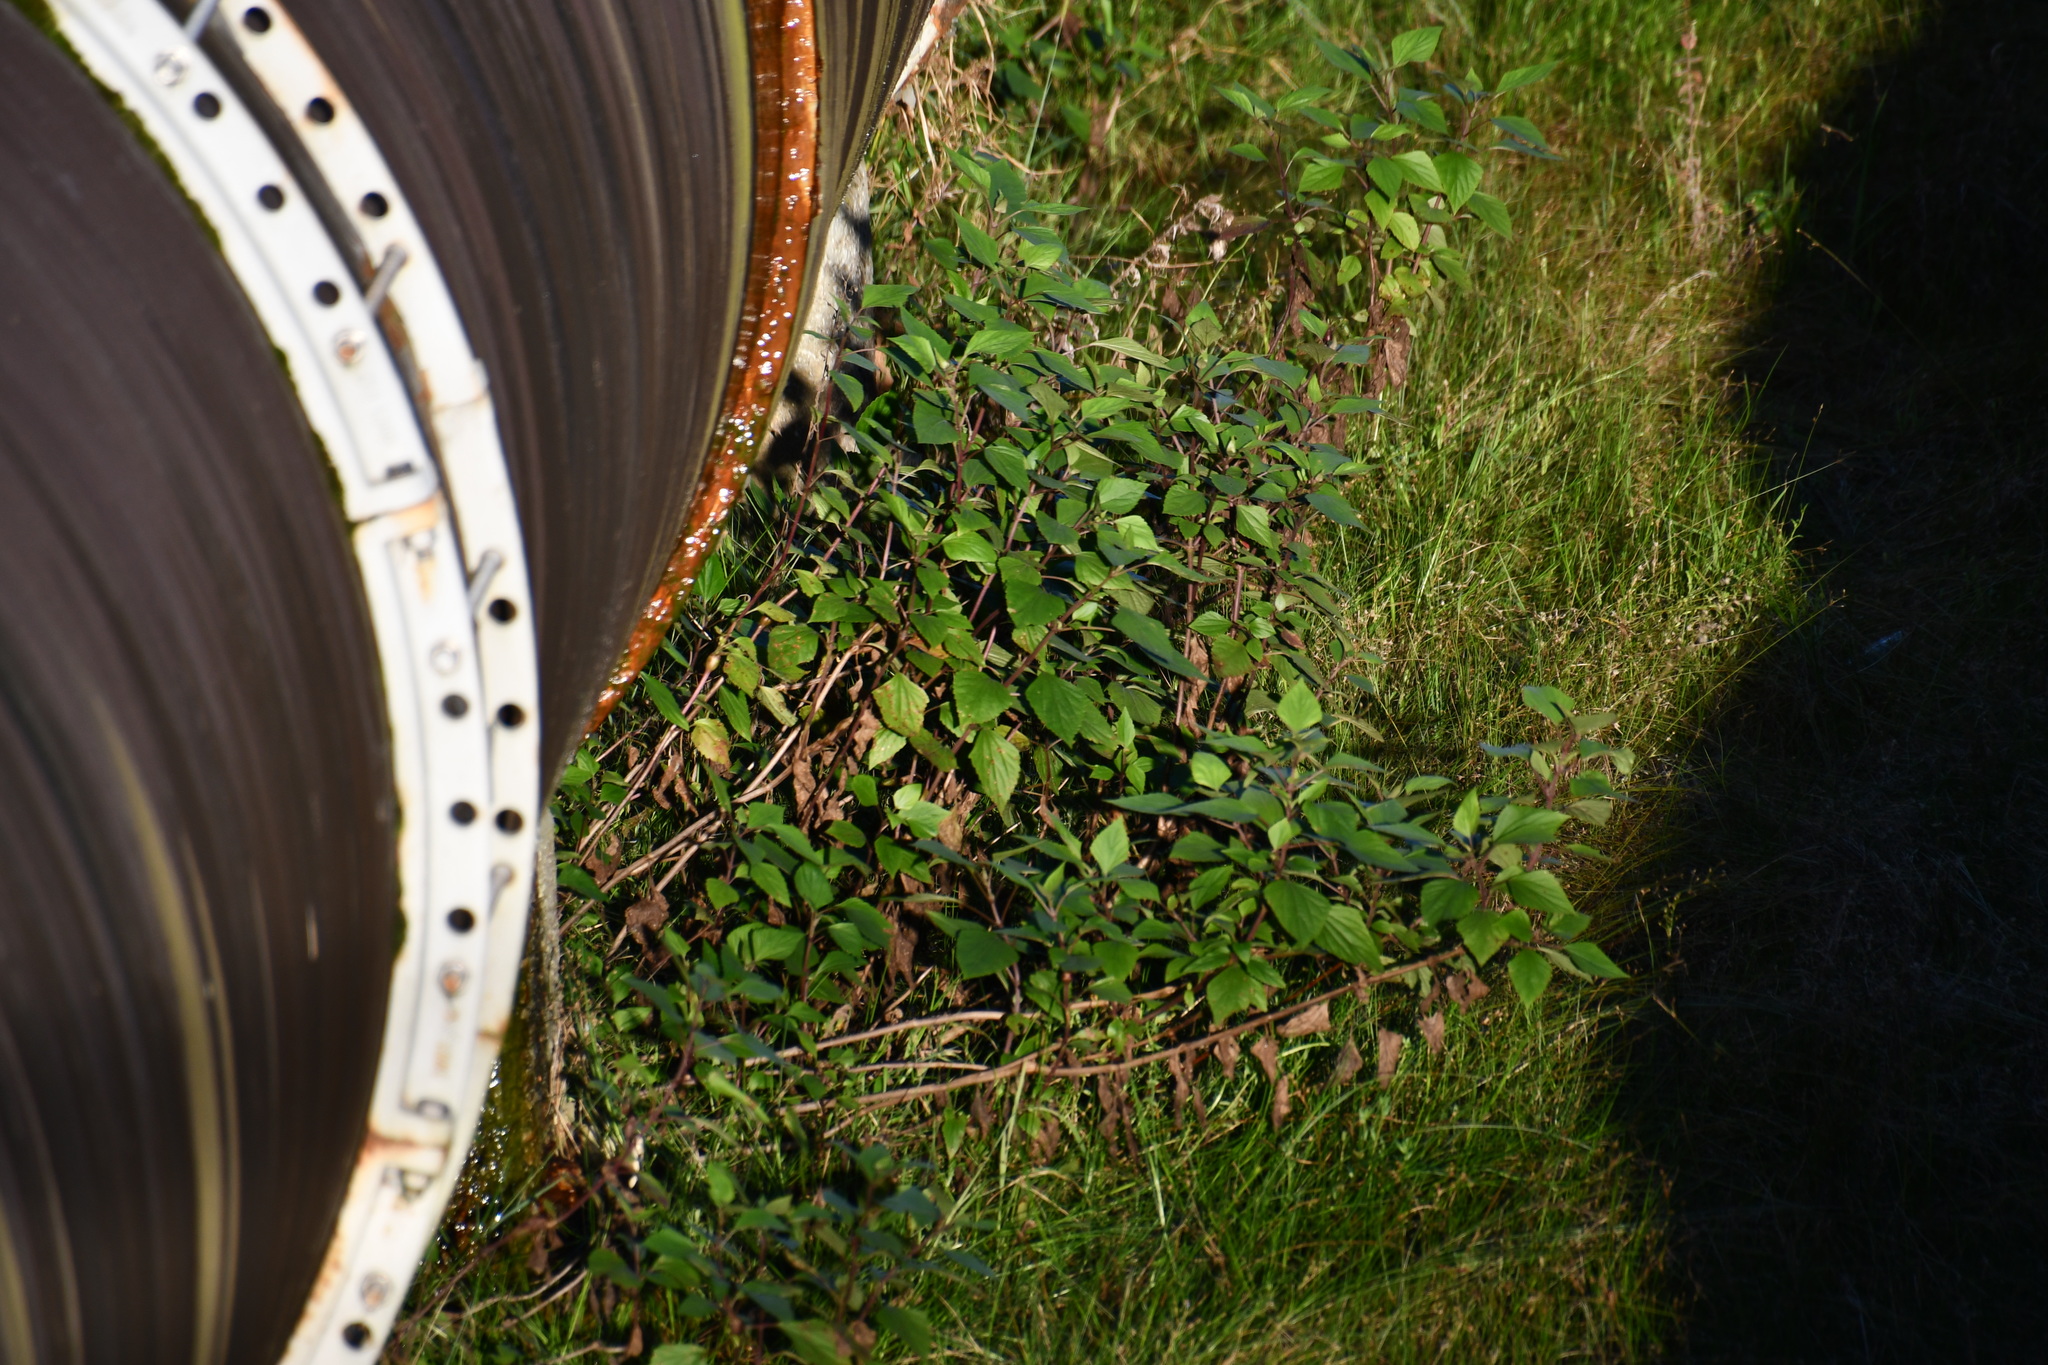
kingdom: Plantae
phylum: Tracheophyta
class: Magnoliopsida
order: Asterales
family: Asteraceae
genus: Ageratina
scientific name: Ageratina adenophora
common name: Sticky snakeroot
